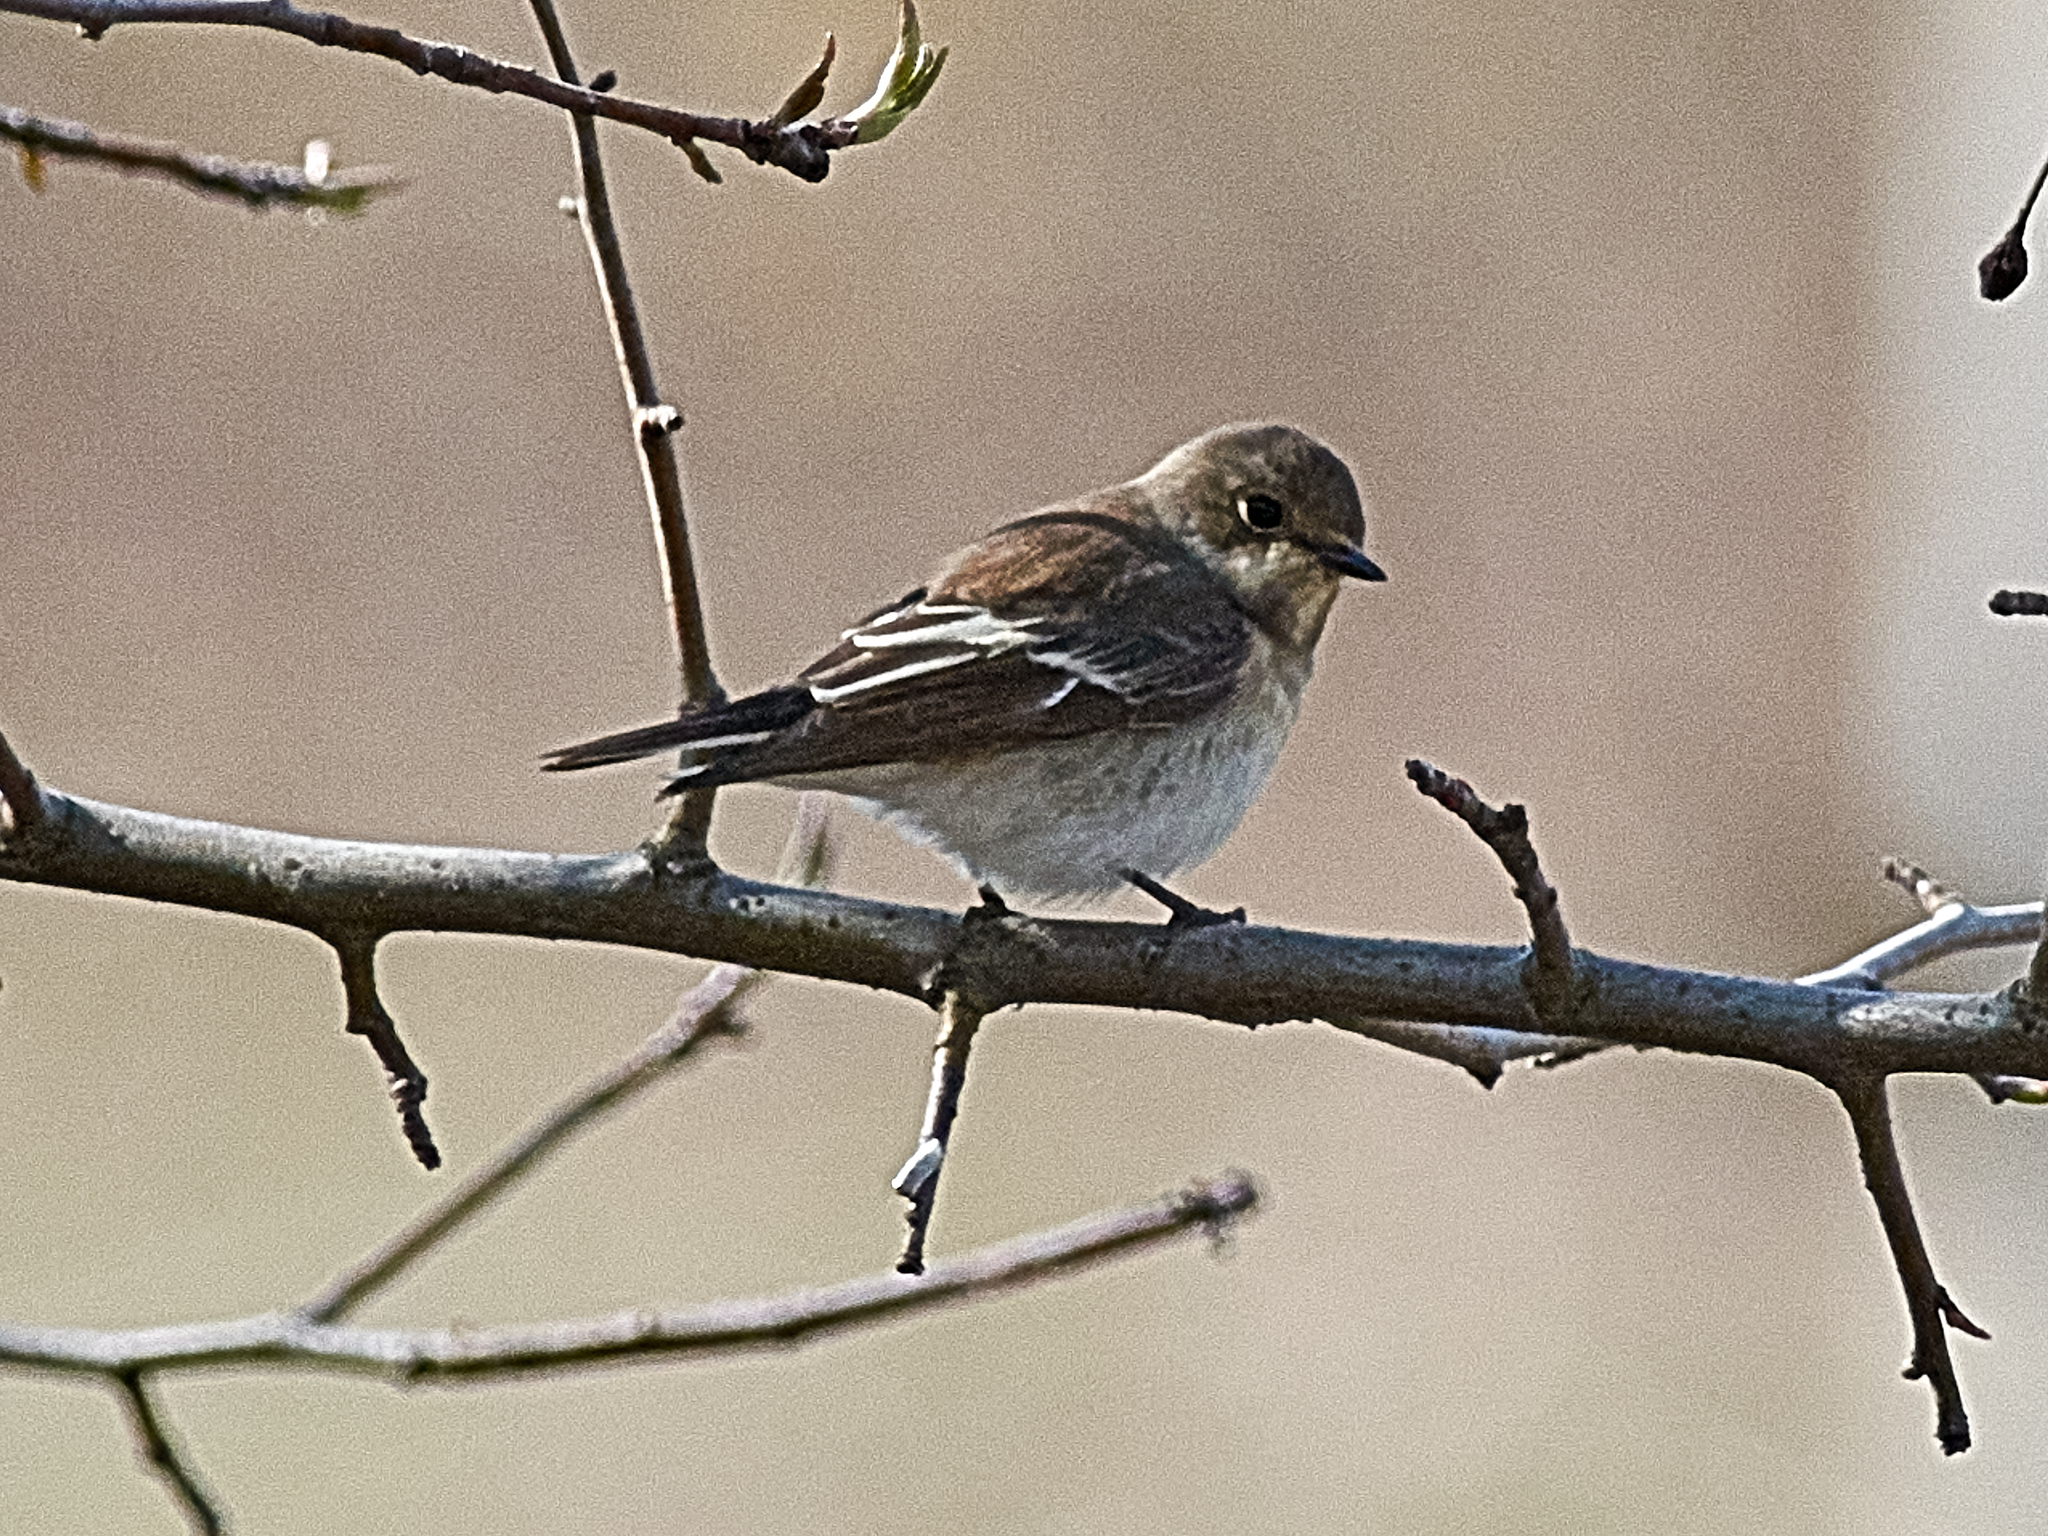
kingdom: Animalia
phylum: Chordata
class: Aves
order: Passeriformes
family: Muscicapidae
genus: Ficedula
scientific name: Ficedula hypoleuca
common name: European pied flycatcher
